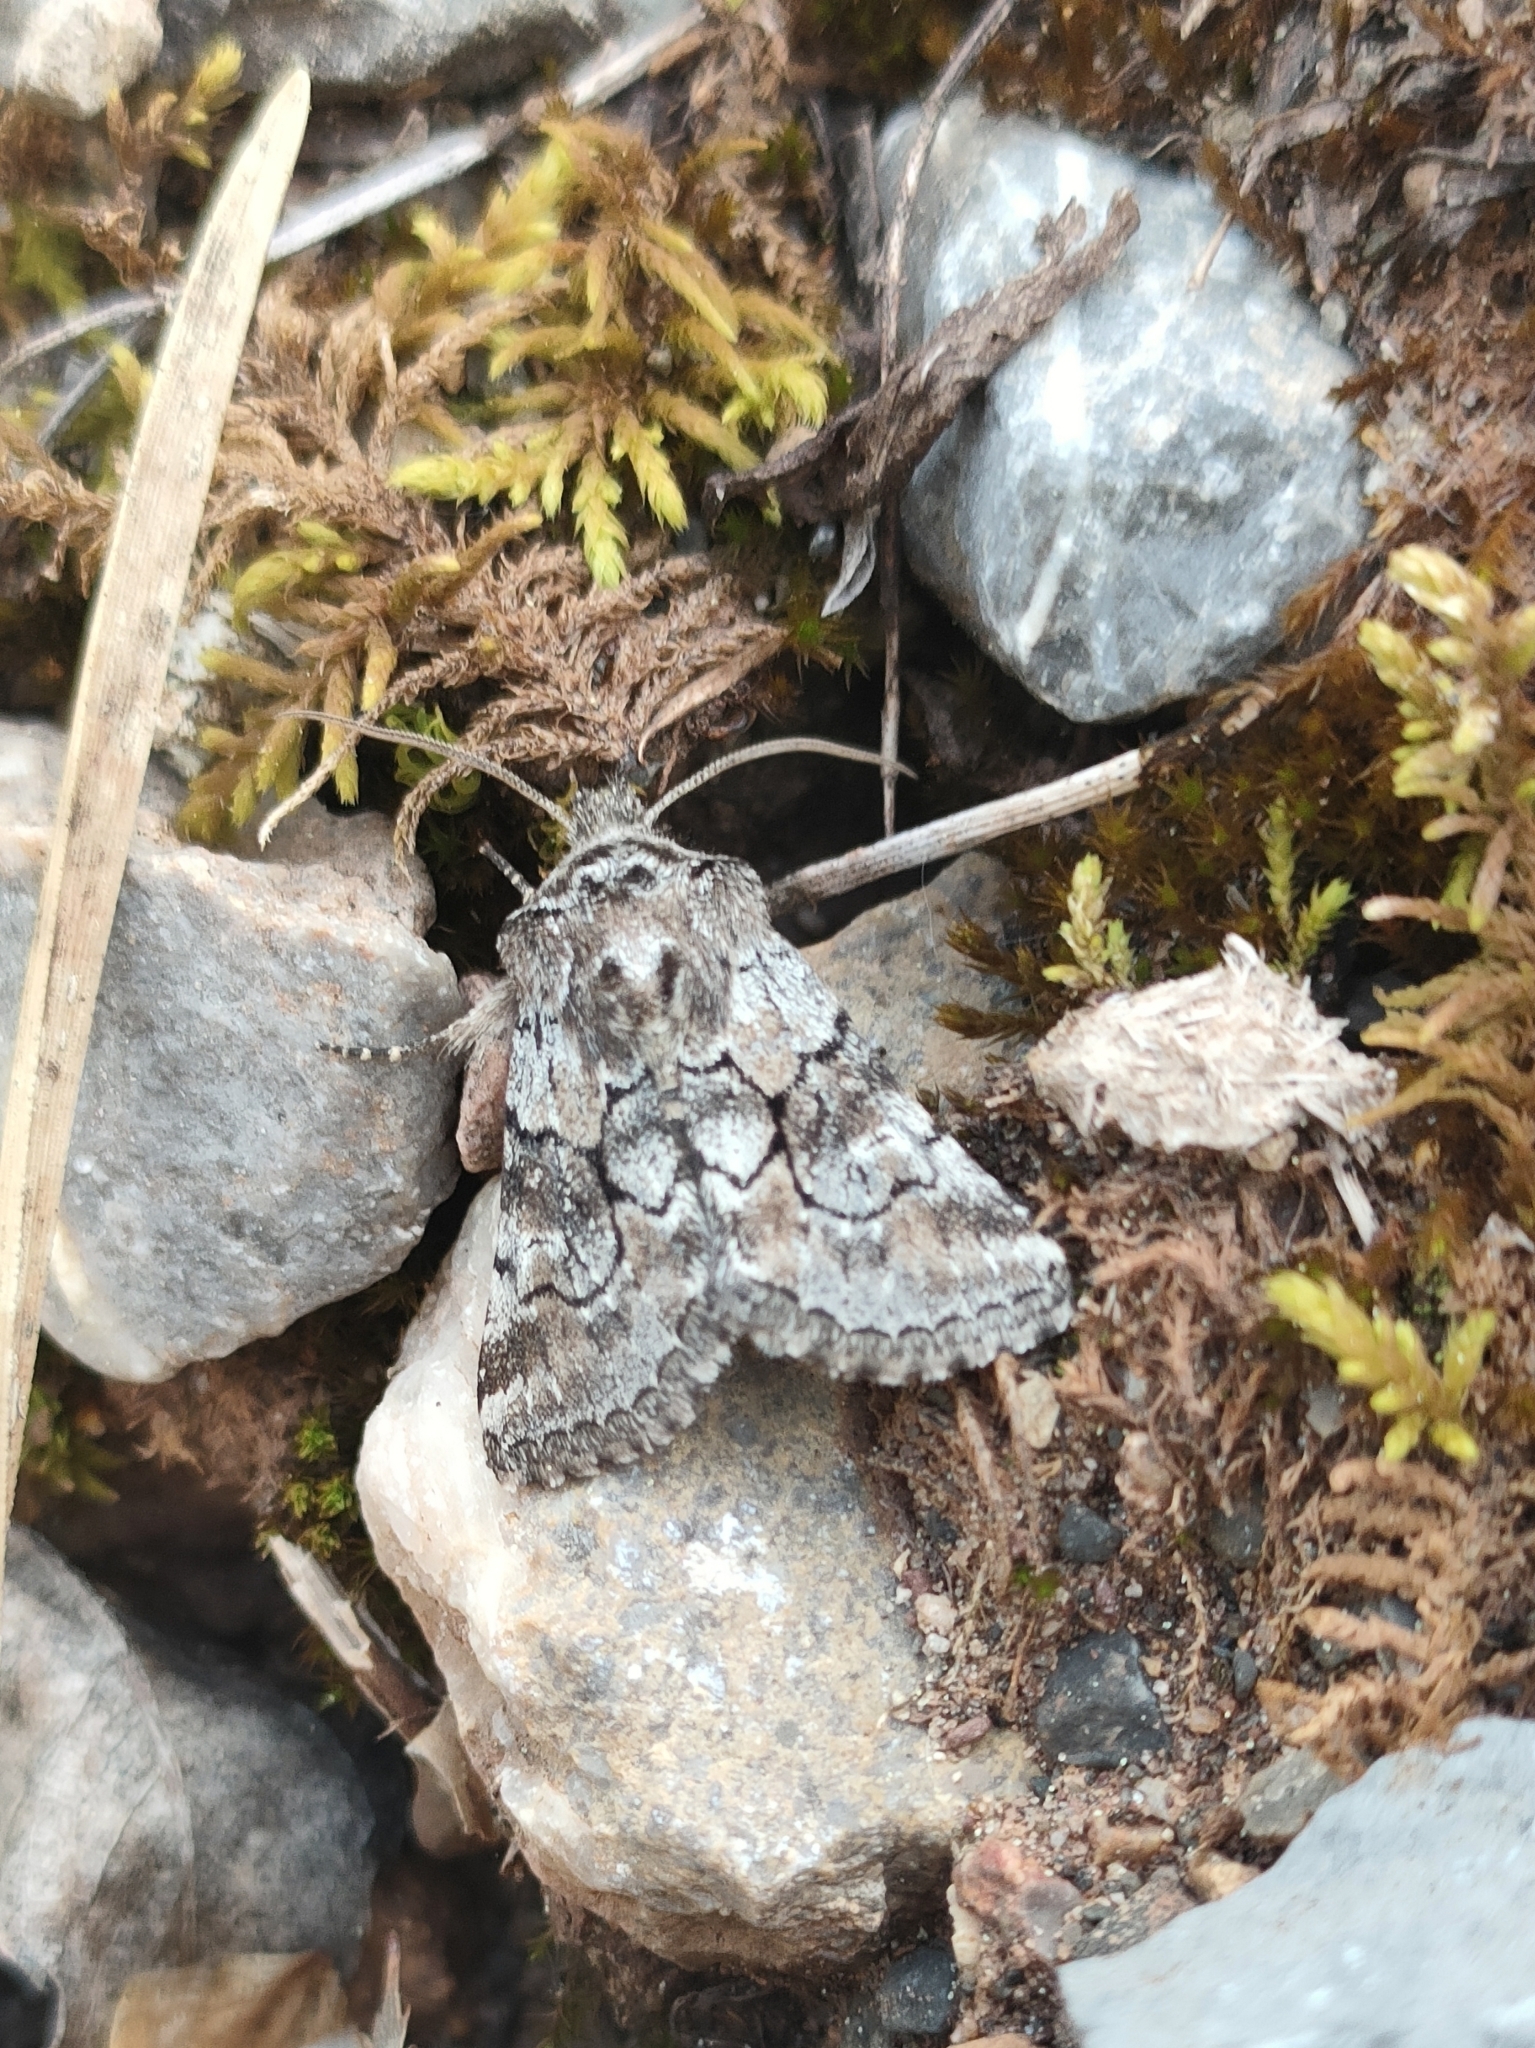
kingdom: Animalia
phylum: Arthropoda
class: Insecta
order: Lepidoptera
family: Noctuidae
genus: Cleonymia
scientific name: Cleonymia yvanii
